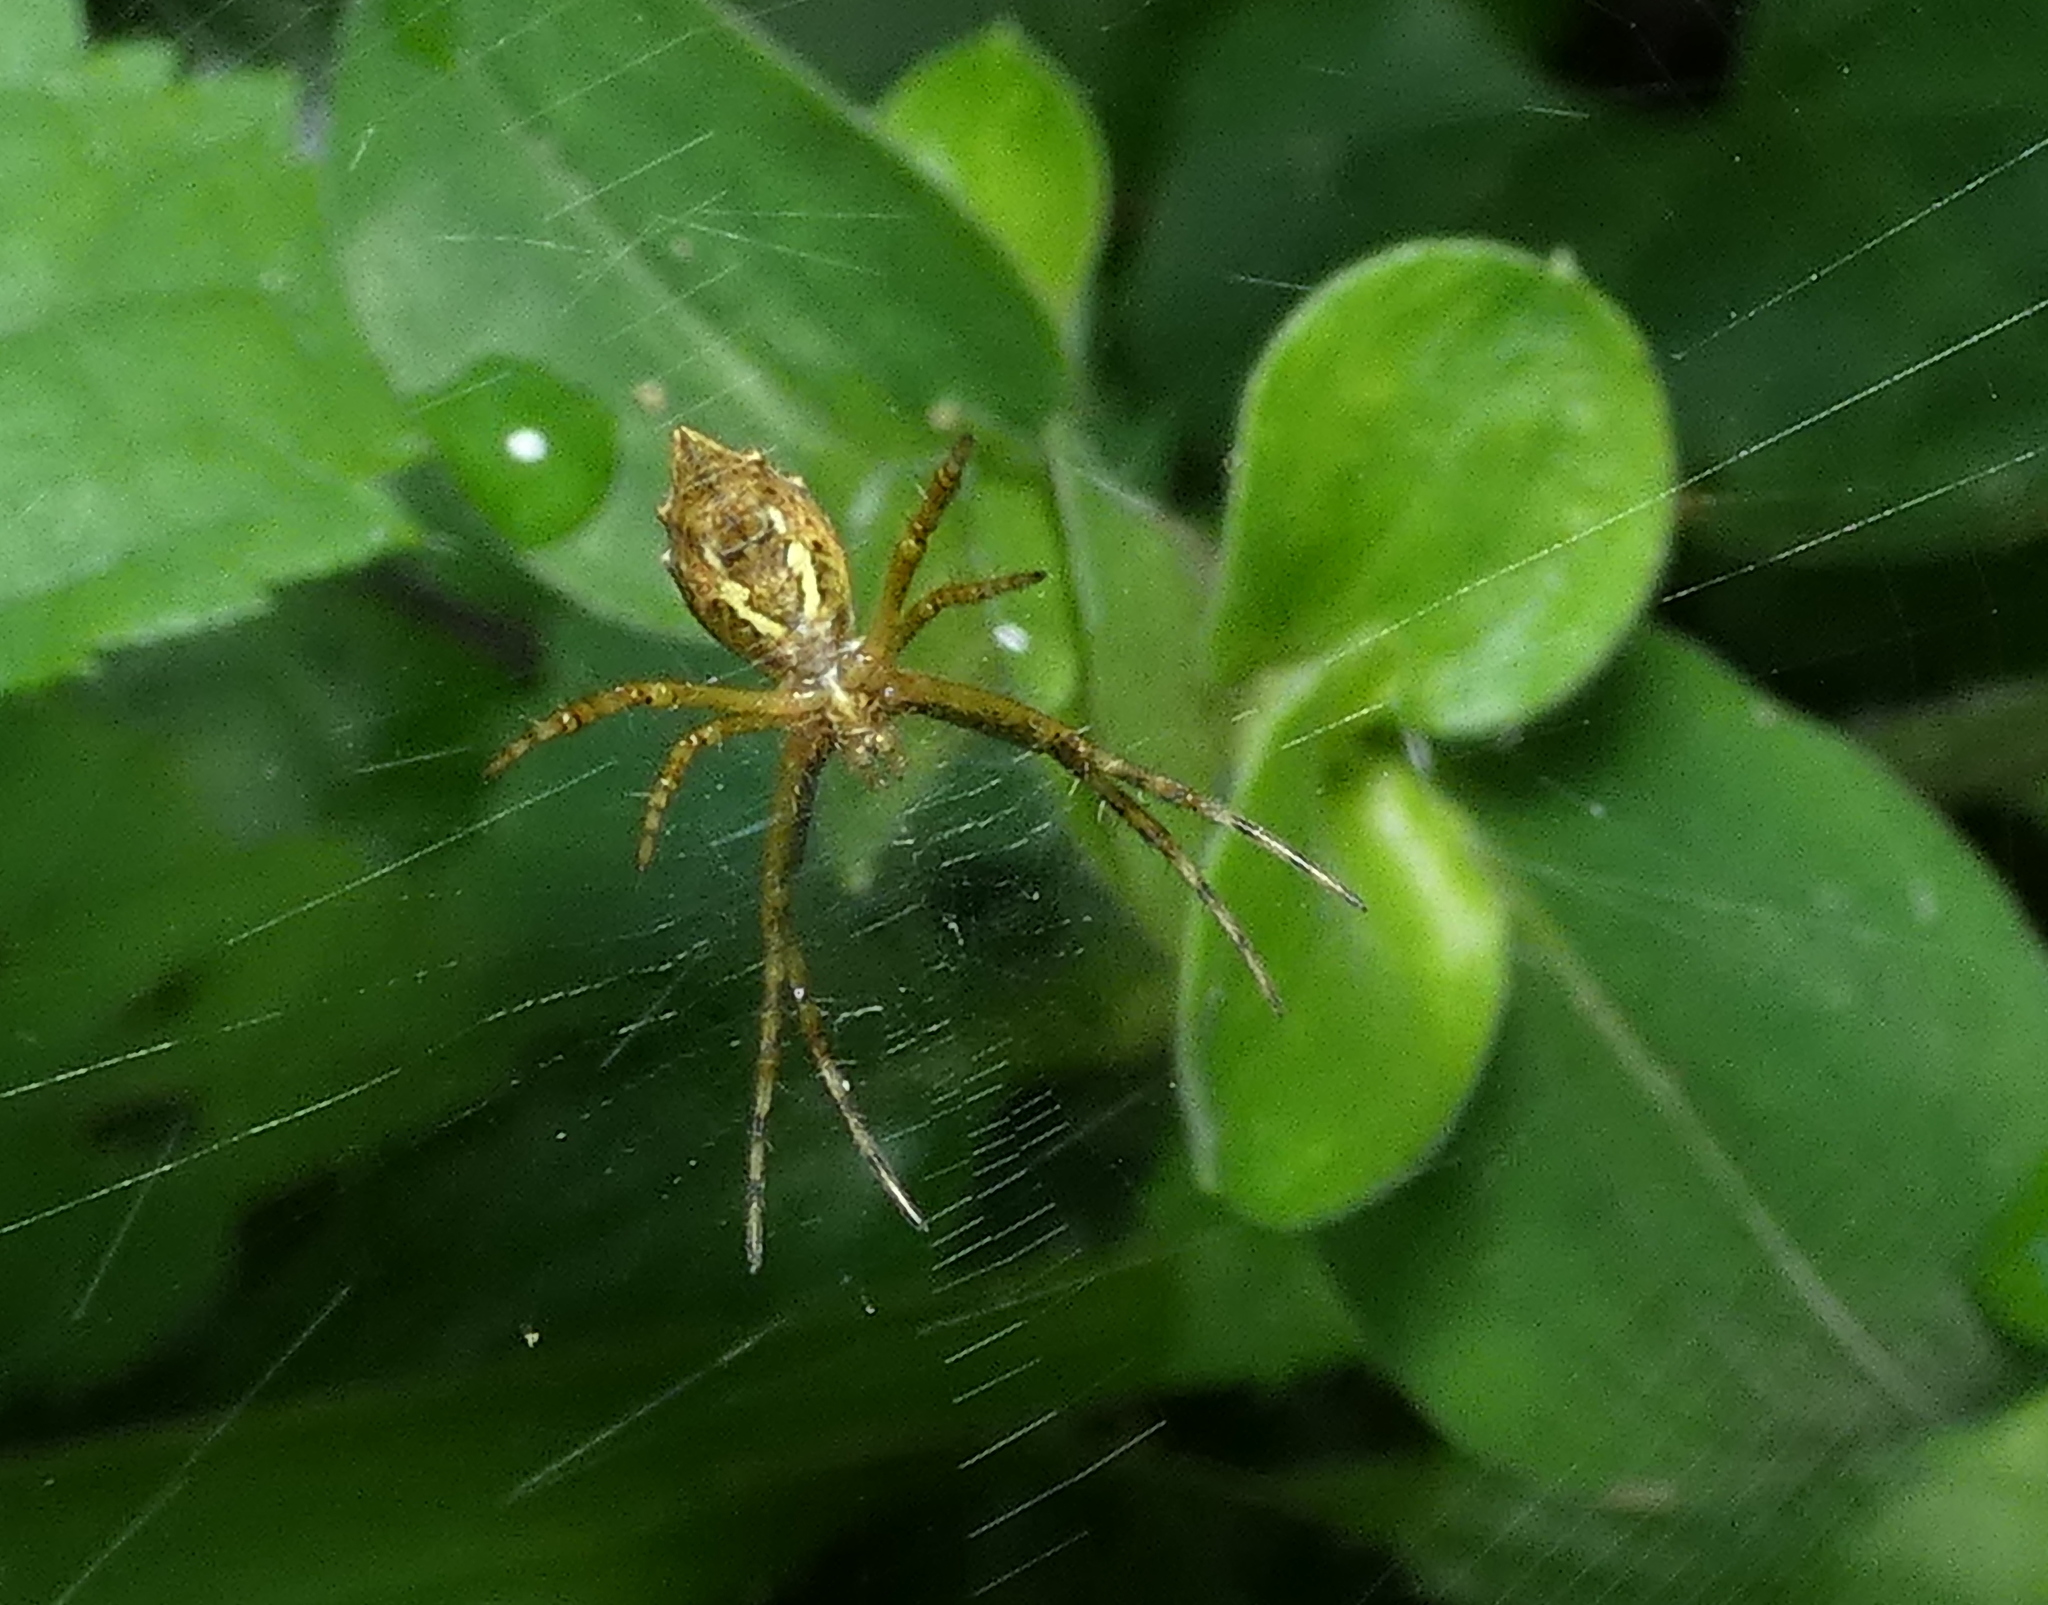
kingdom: Animalia
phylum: Arthropoda
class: Arachnida
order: Araneae
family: Araneidae
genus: Argiope
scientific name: Argiope argentata
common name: Orb weavers
